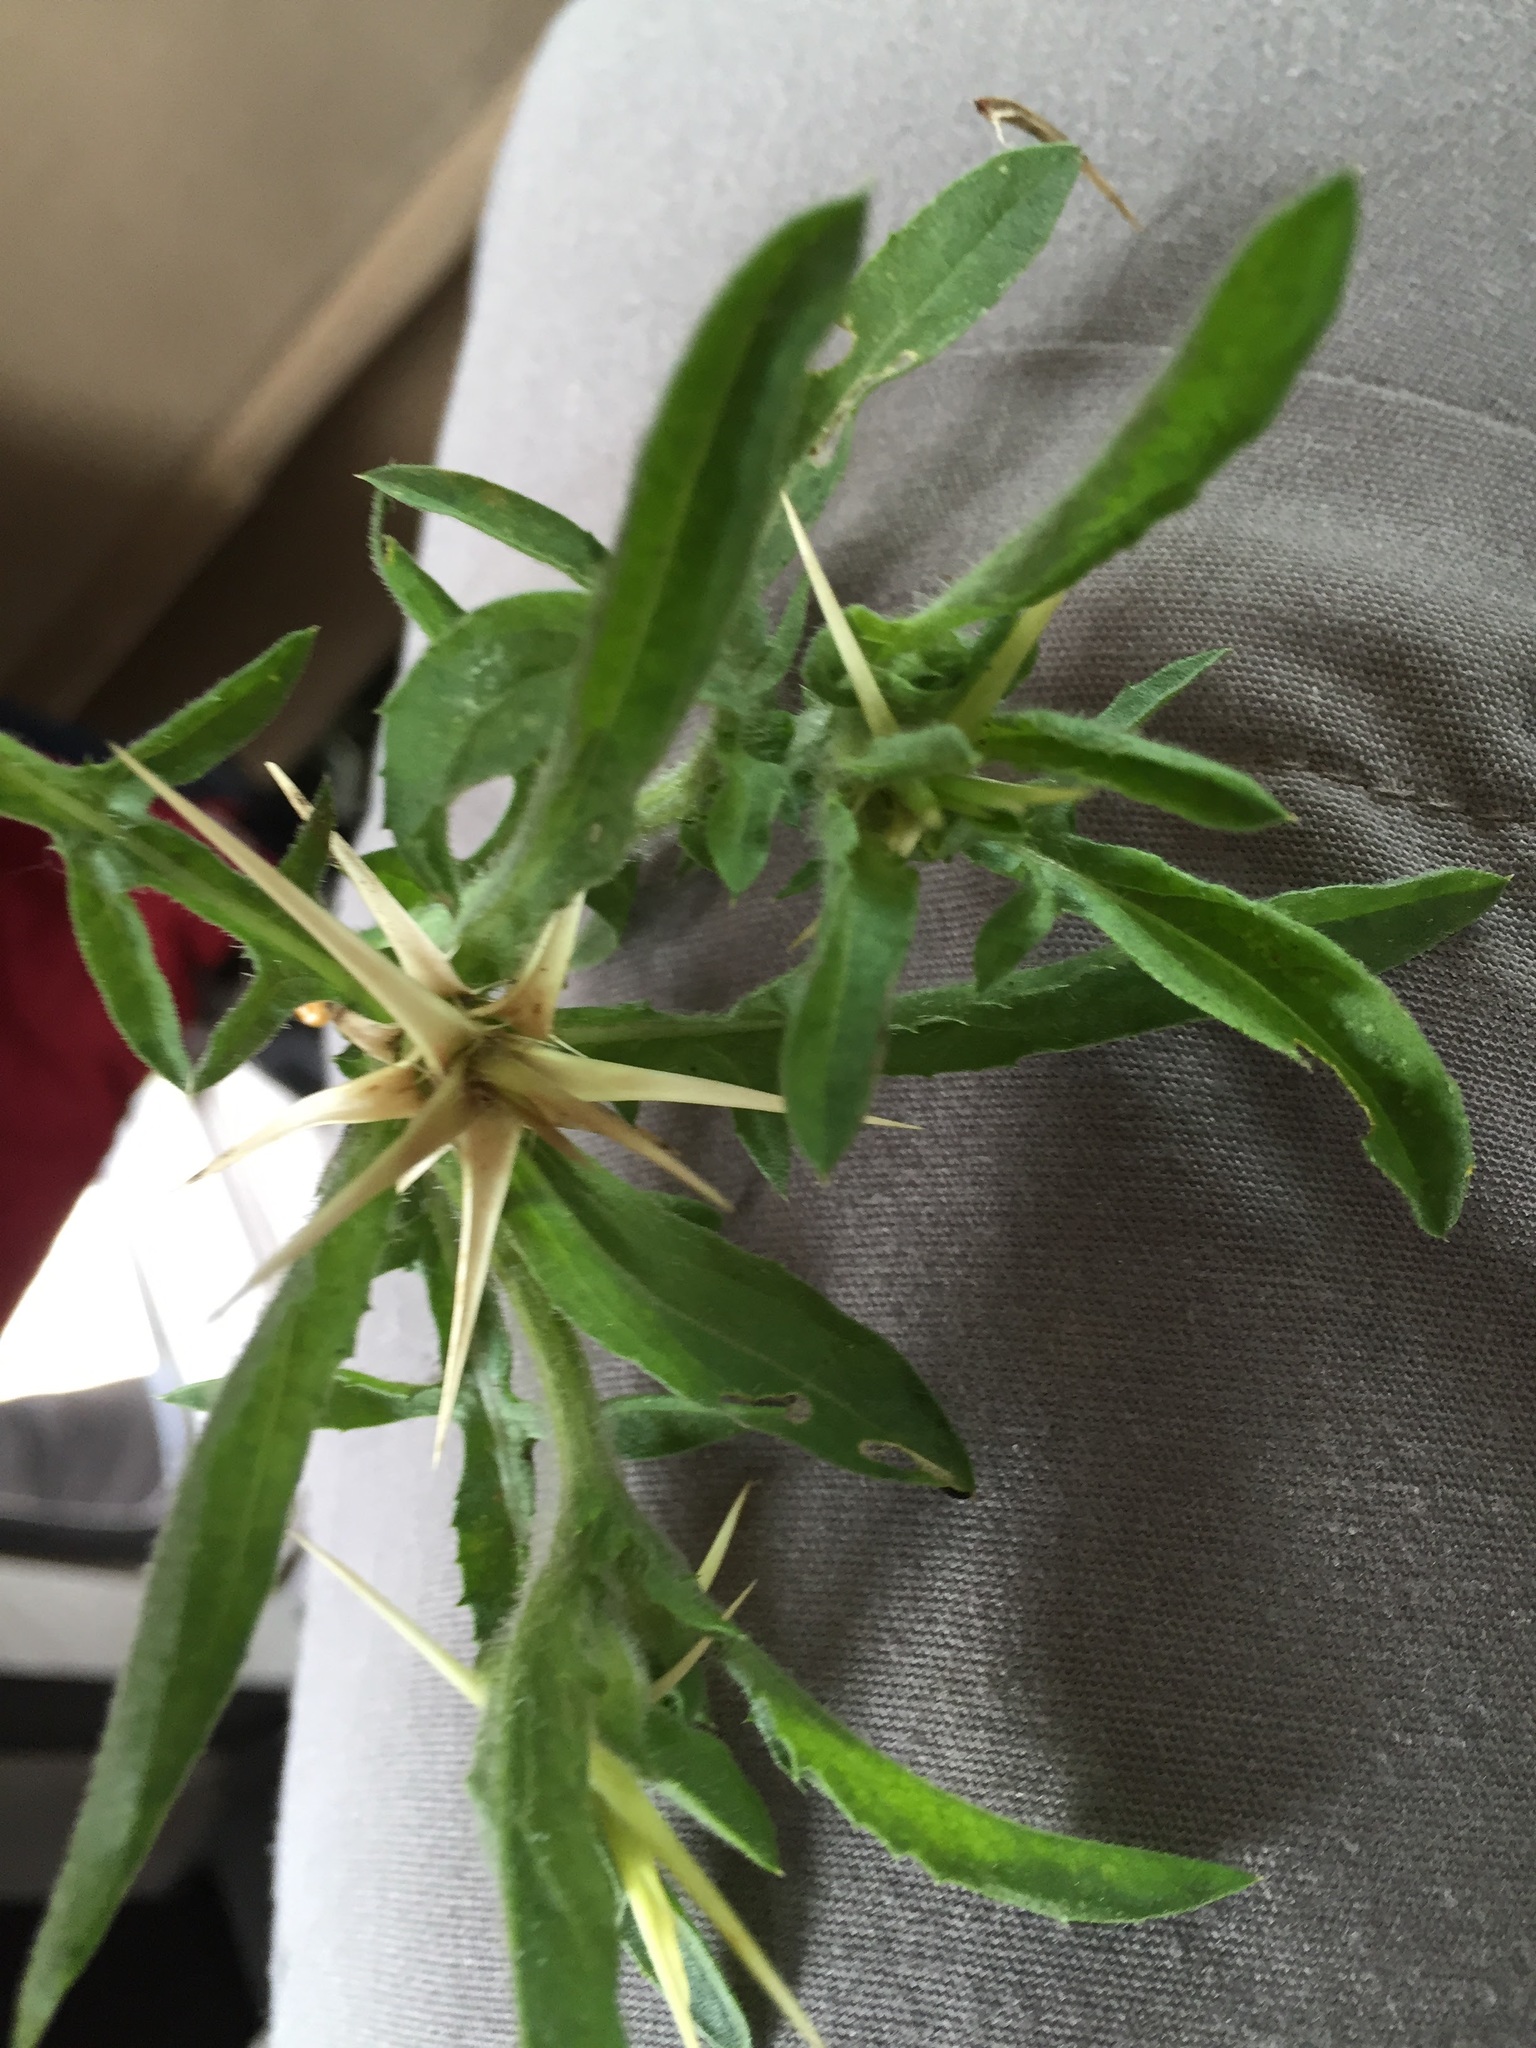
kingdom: Plantae
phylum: Tracheophyta
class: Magnoliopsida
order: Asterales
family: Asteraceae
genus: Xanthium
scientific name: Xanthium spinosum
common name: Spiny cocklebur
